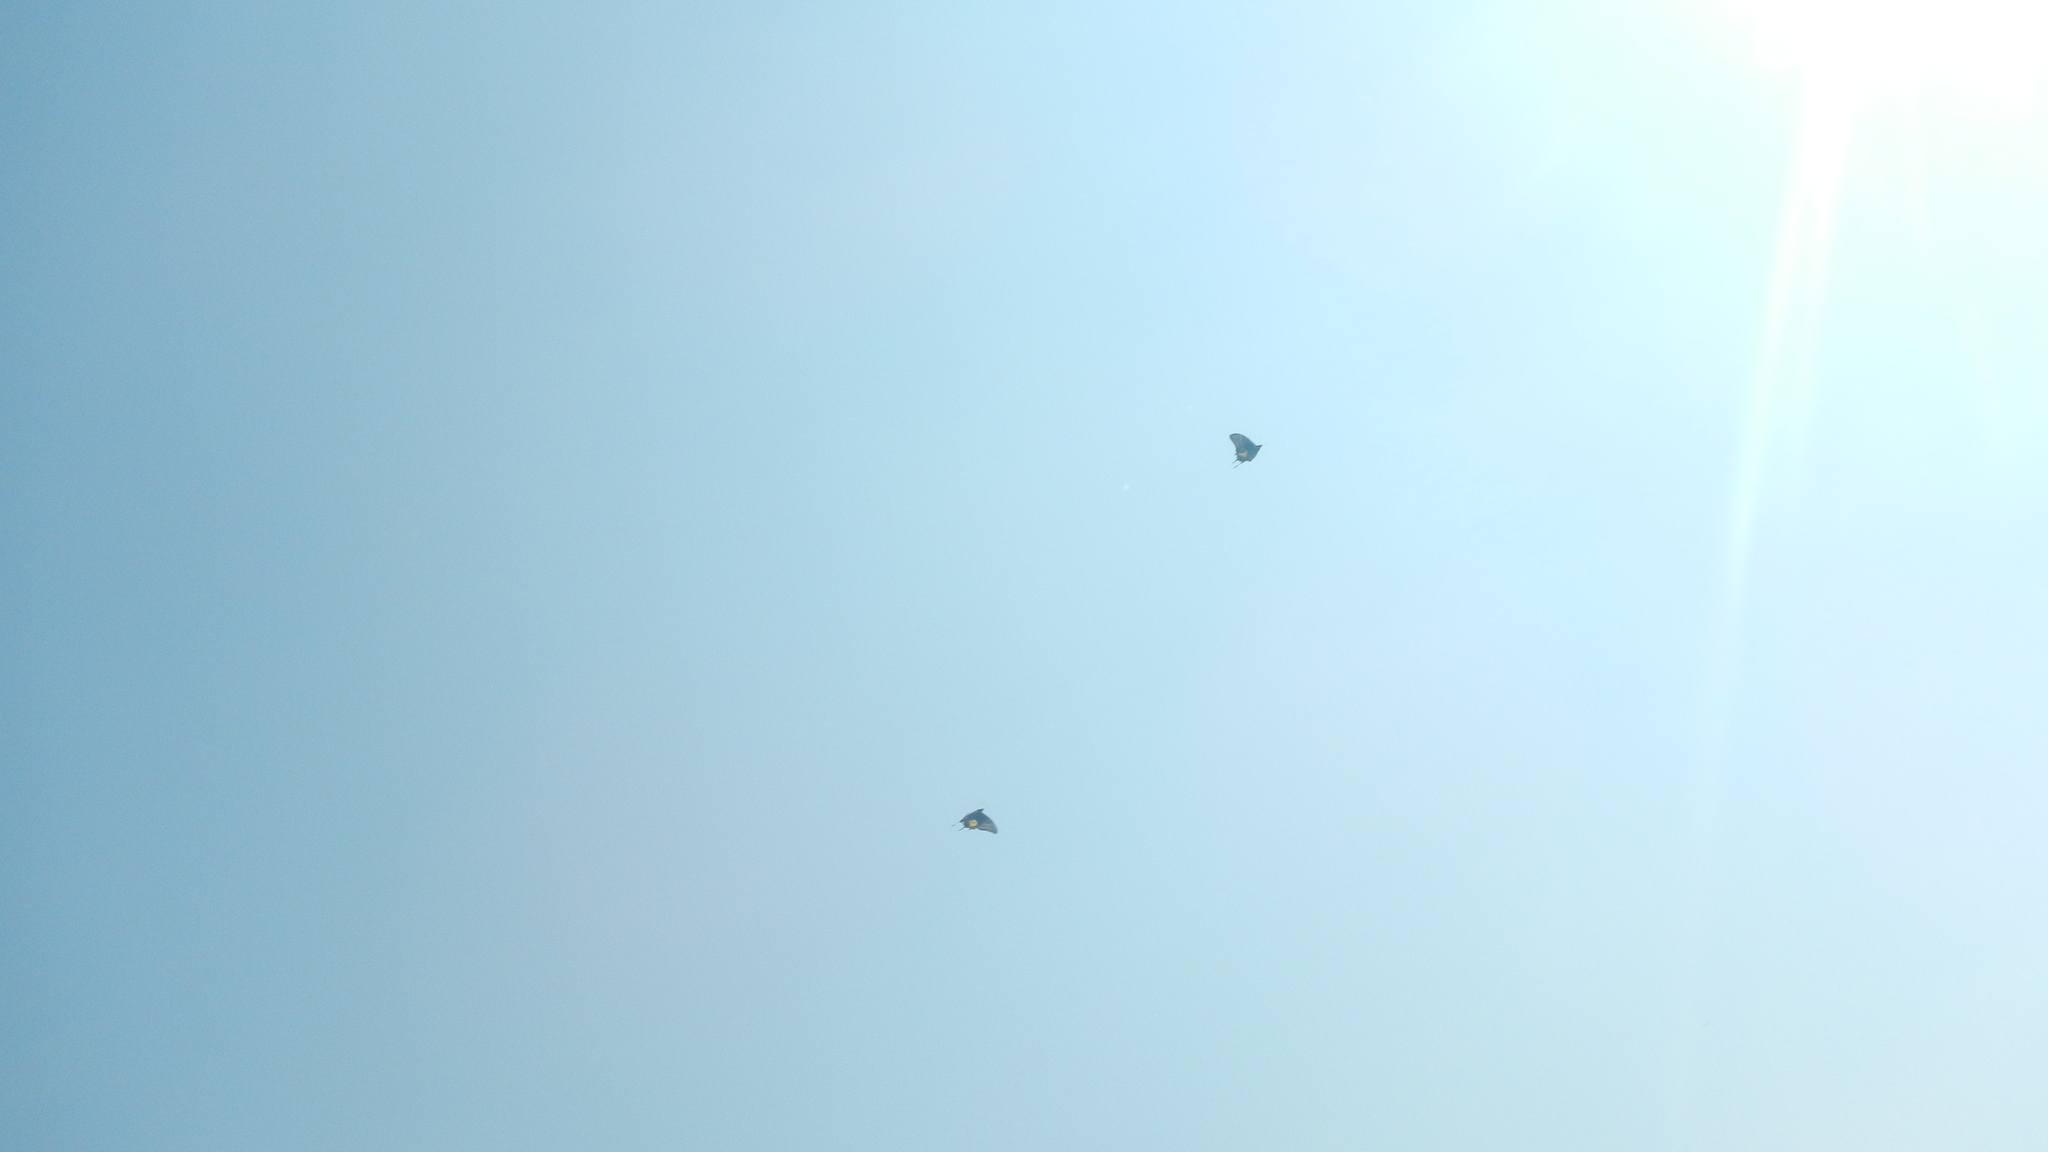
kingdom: Animalia
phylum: Arthropoda
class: Insecta
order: Lepidoptera
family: Papilionidae
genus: Teinopalpus
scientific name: Teinopalpus aureus
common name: Golden kaiserihind
